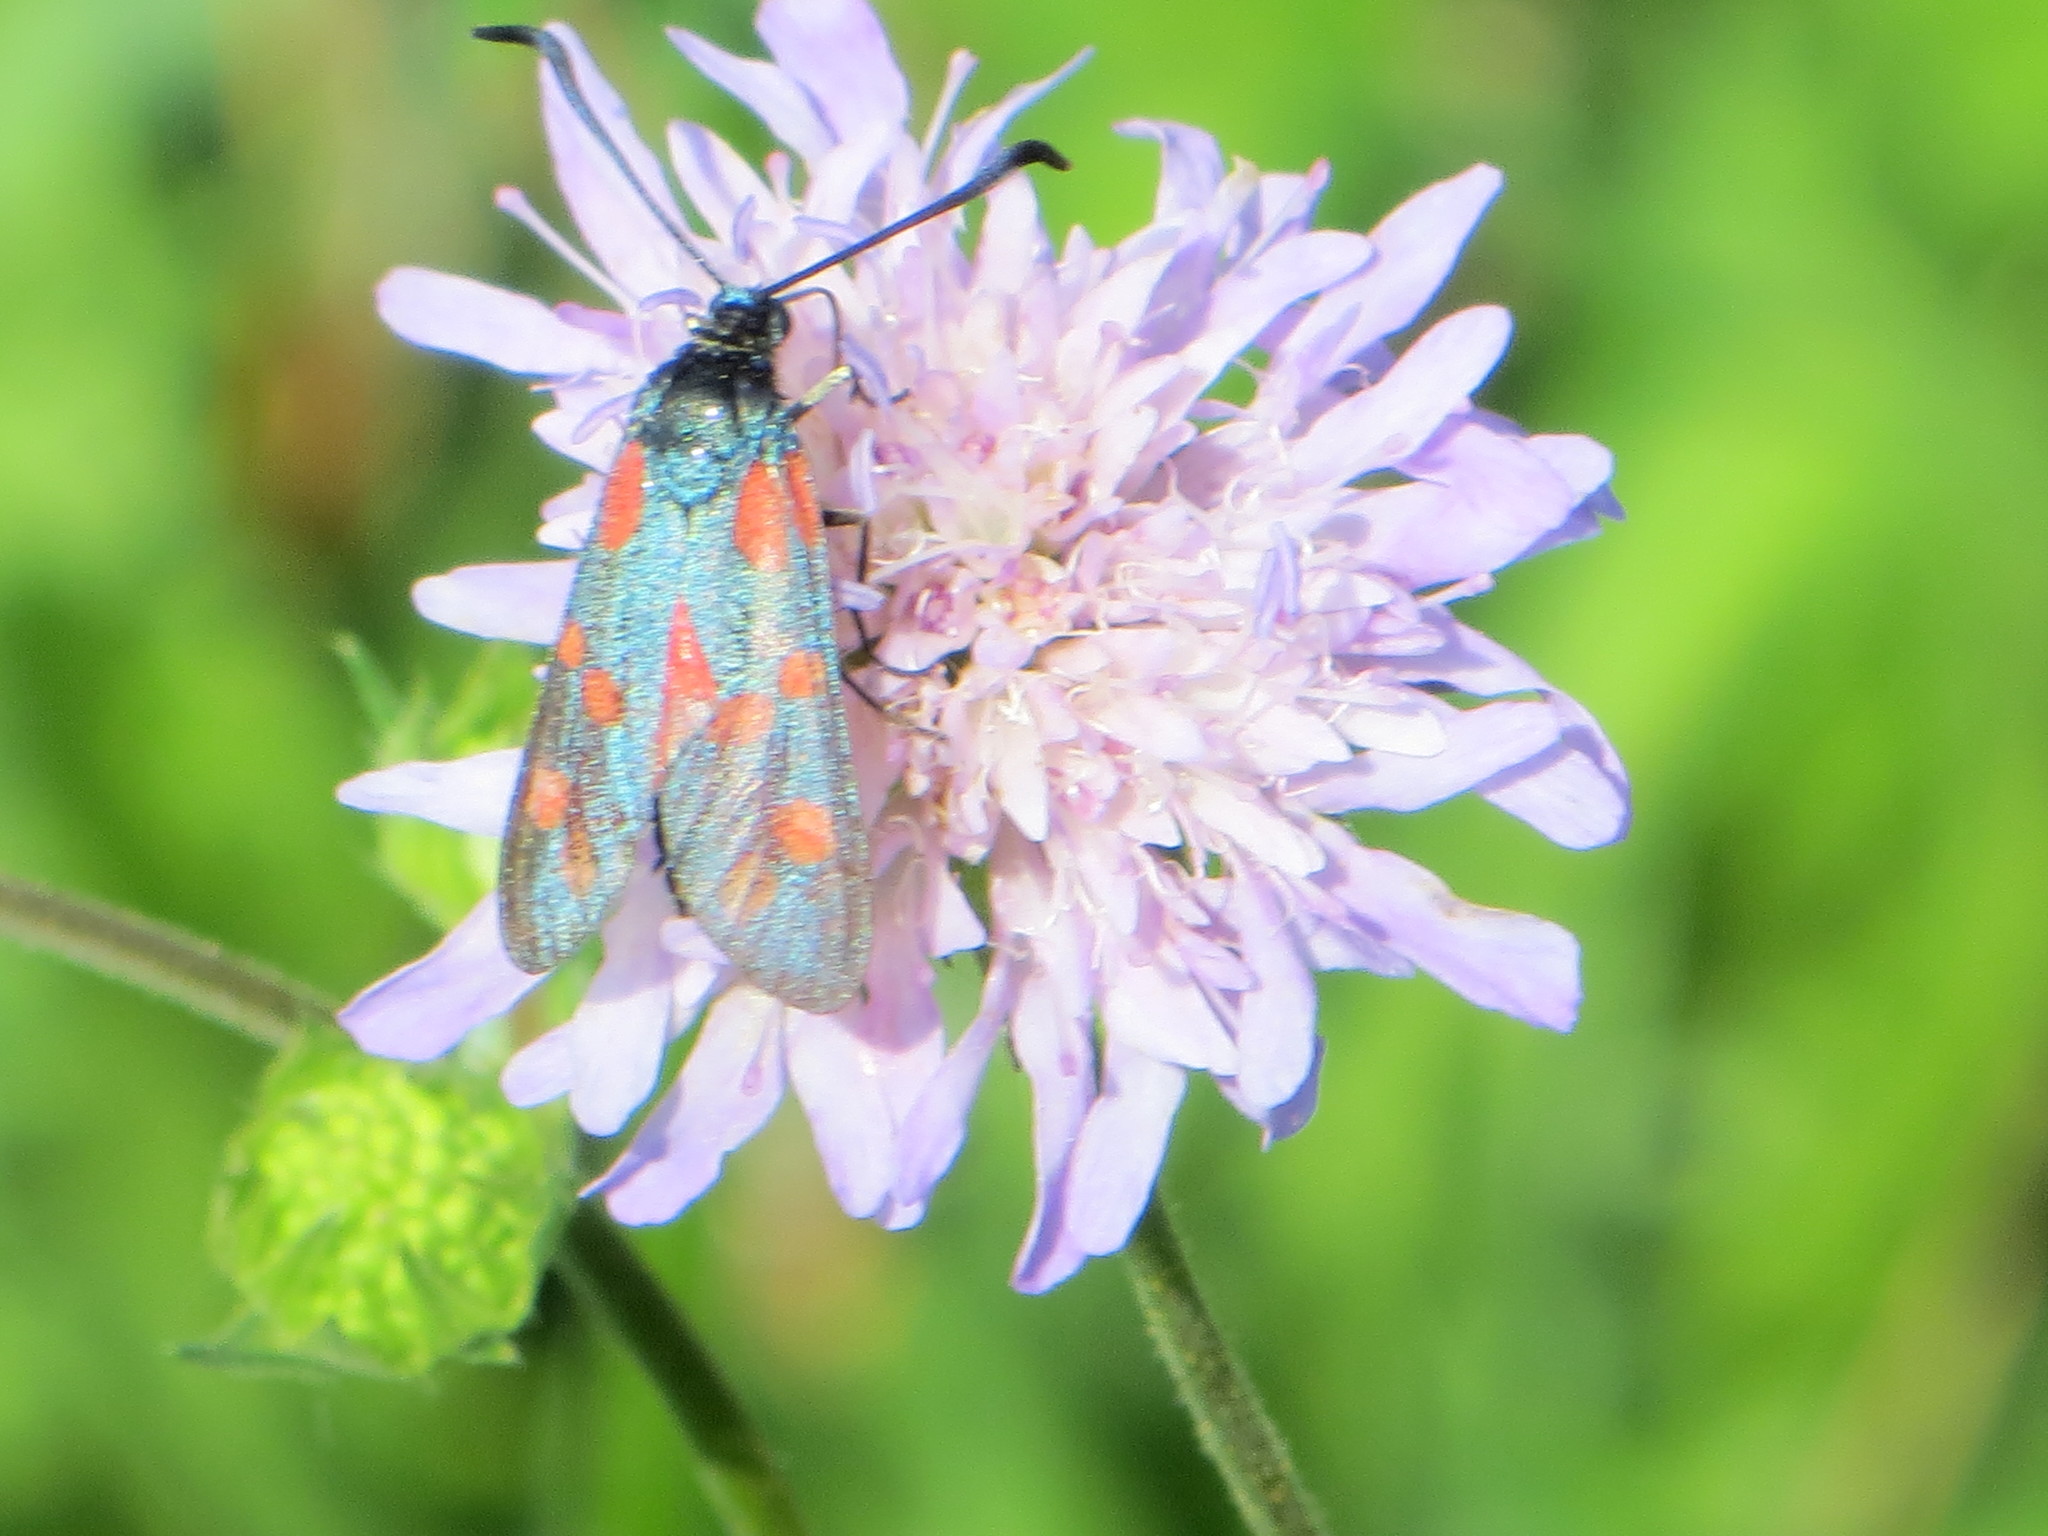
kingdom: Animalia
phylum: Arthropoda
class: Insecta
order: Lepidoptera
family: Zygaenidae
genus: Zygaena
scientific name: Zygaena filipendulae
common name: Six-spot burnet
